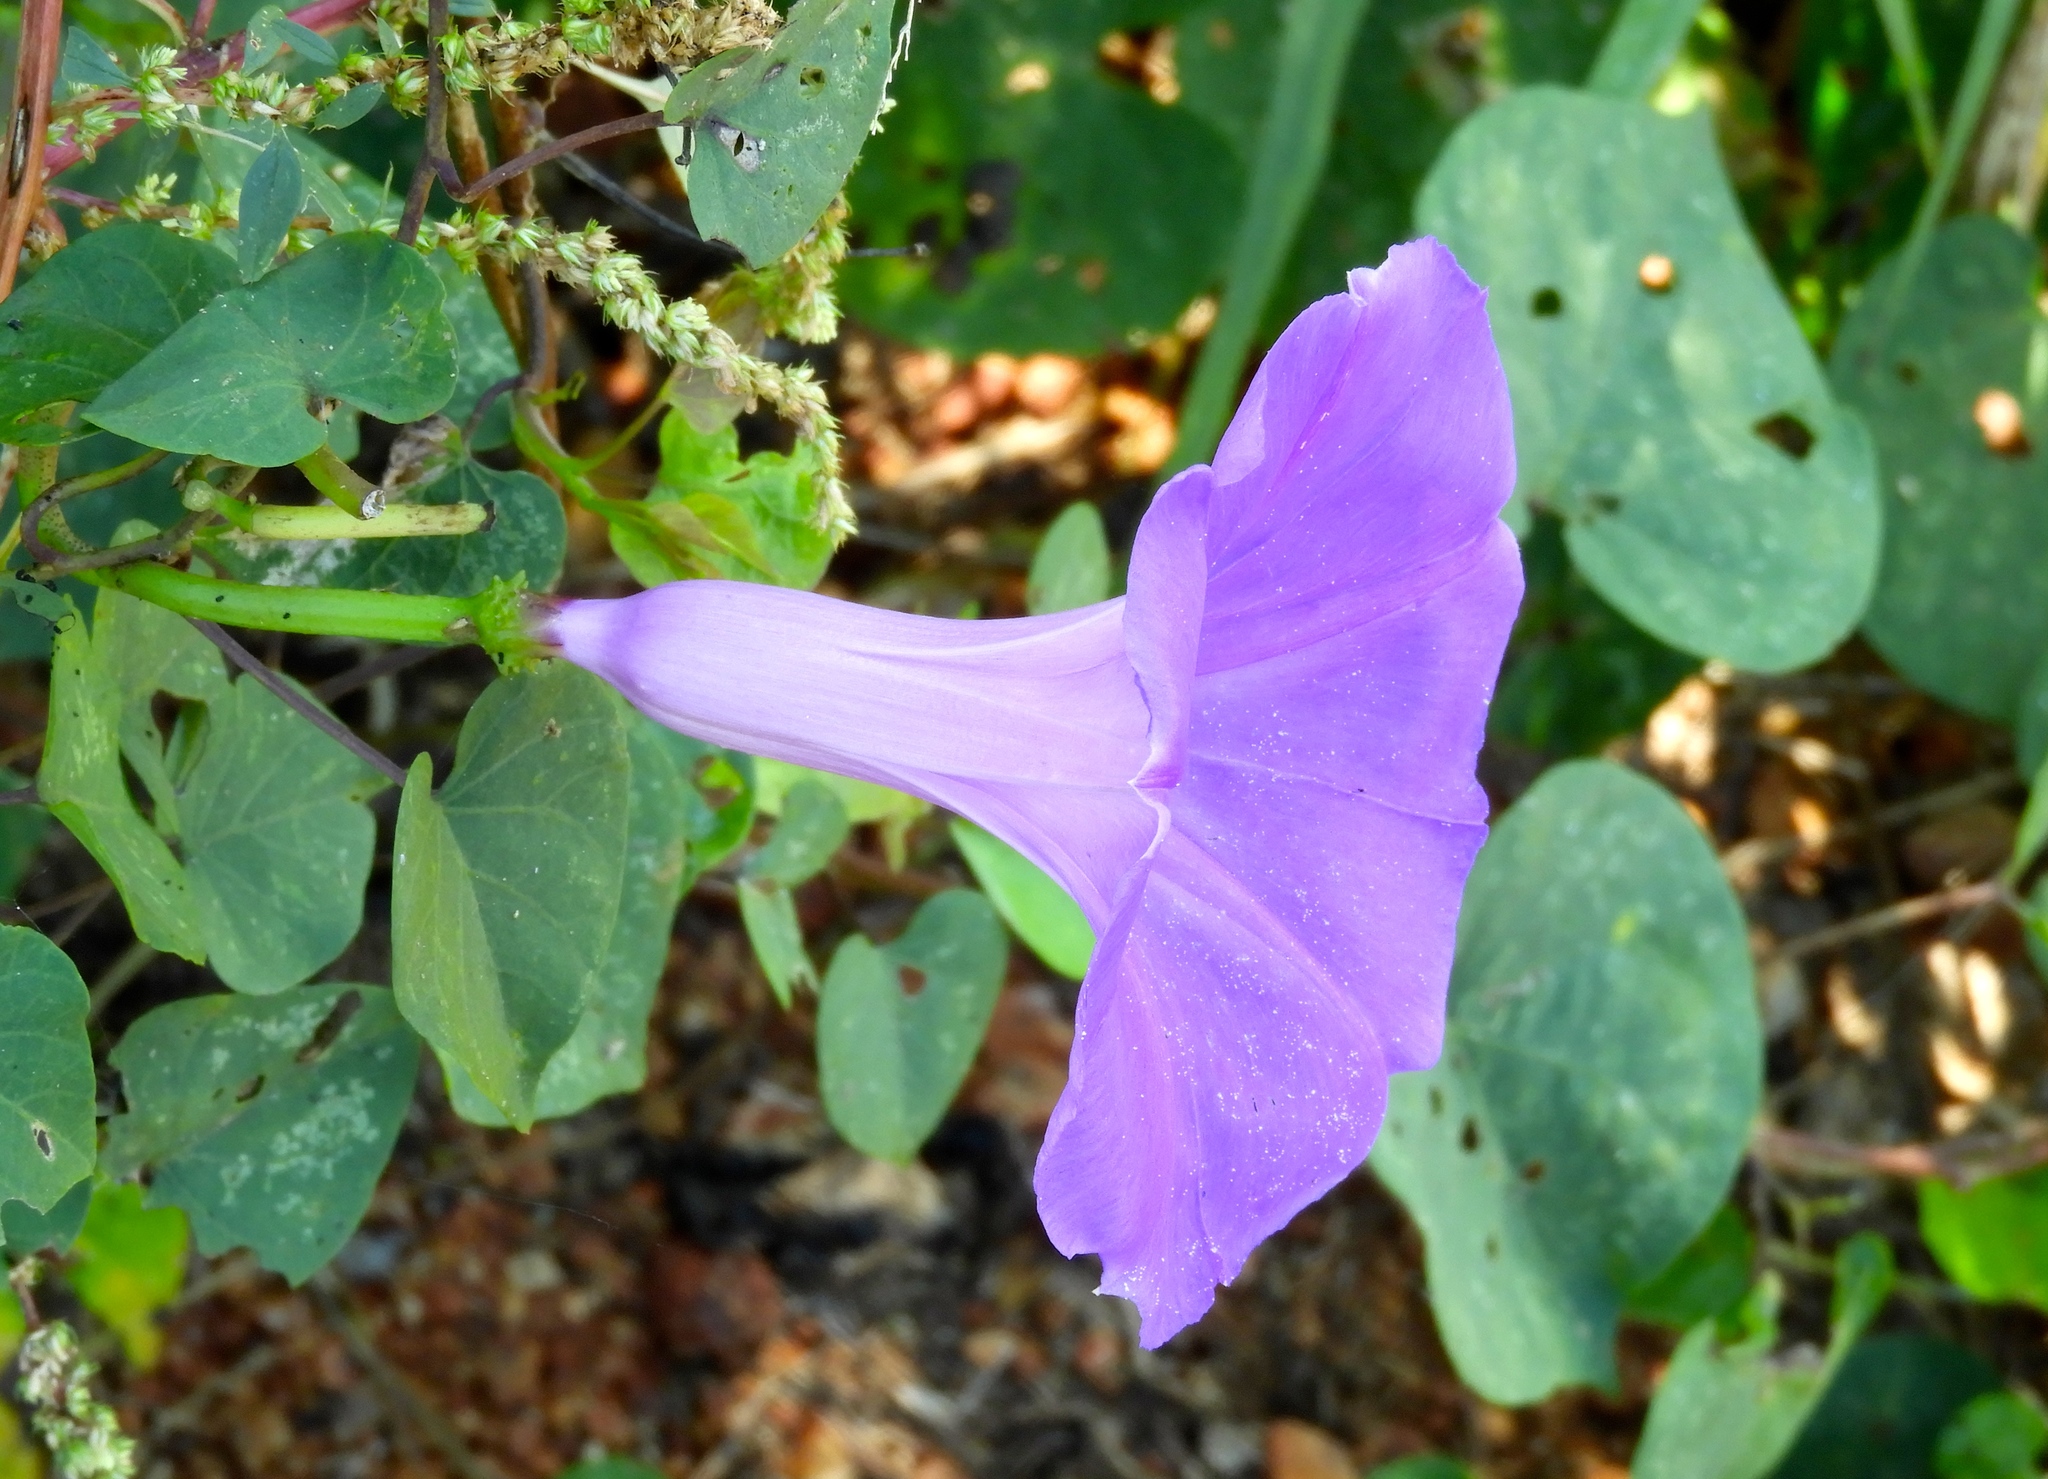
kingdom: Plantae
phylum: Tracheophyta
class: Magnoliopsida
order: Solanales
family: Convolvulaceae
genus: Ipomoea
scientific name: Ipomoea pedicellaris
